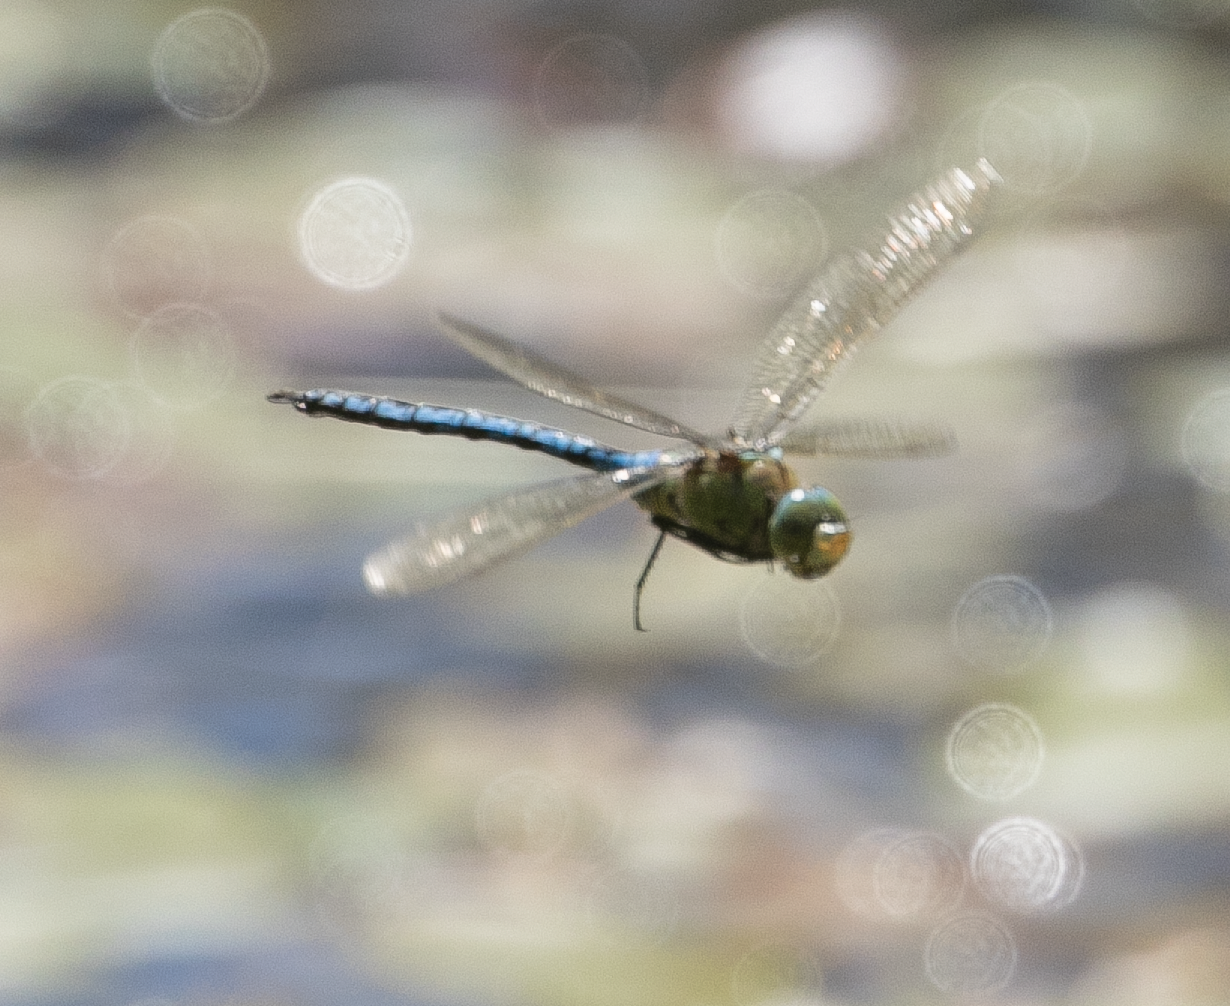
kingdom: Animalia
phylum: Arthropoda
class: Insecta
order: Odonata
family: Aeshnidae
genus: Anax
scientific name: Anax imperator
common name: Emperor dragonfly
